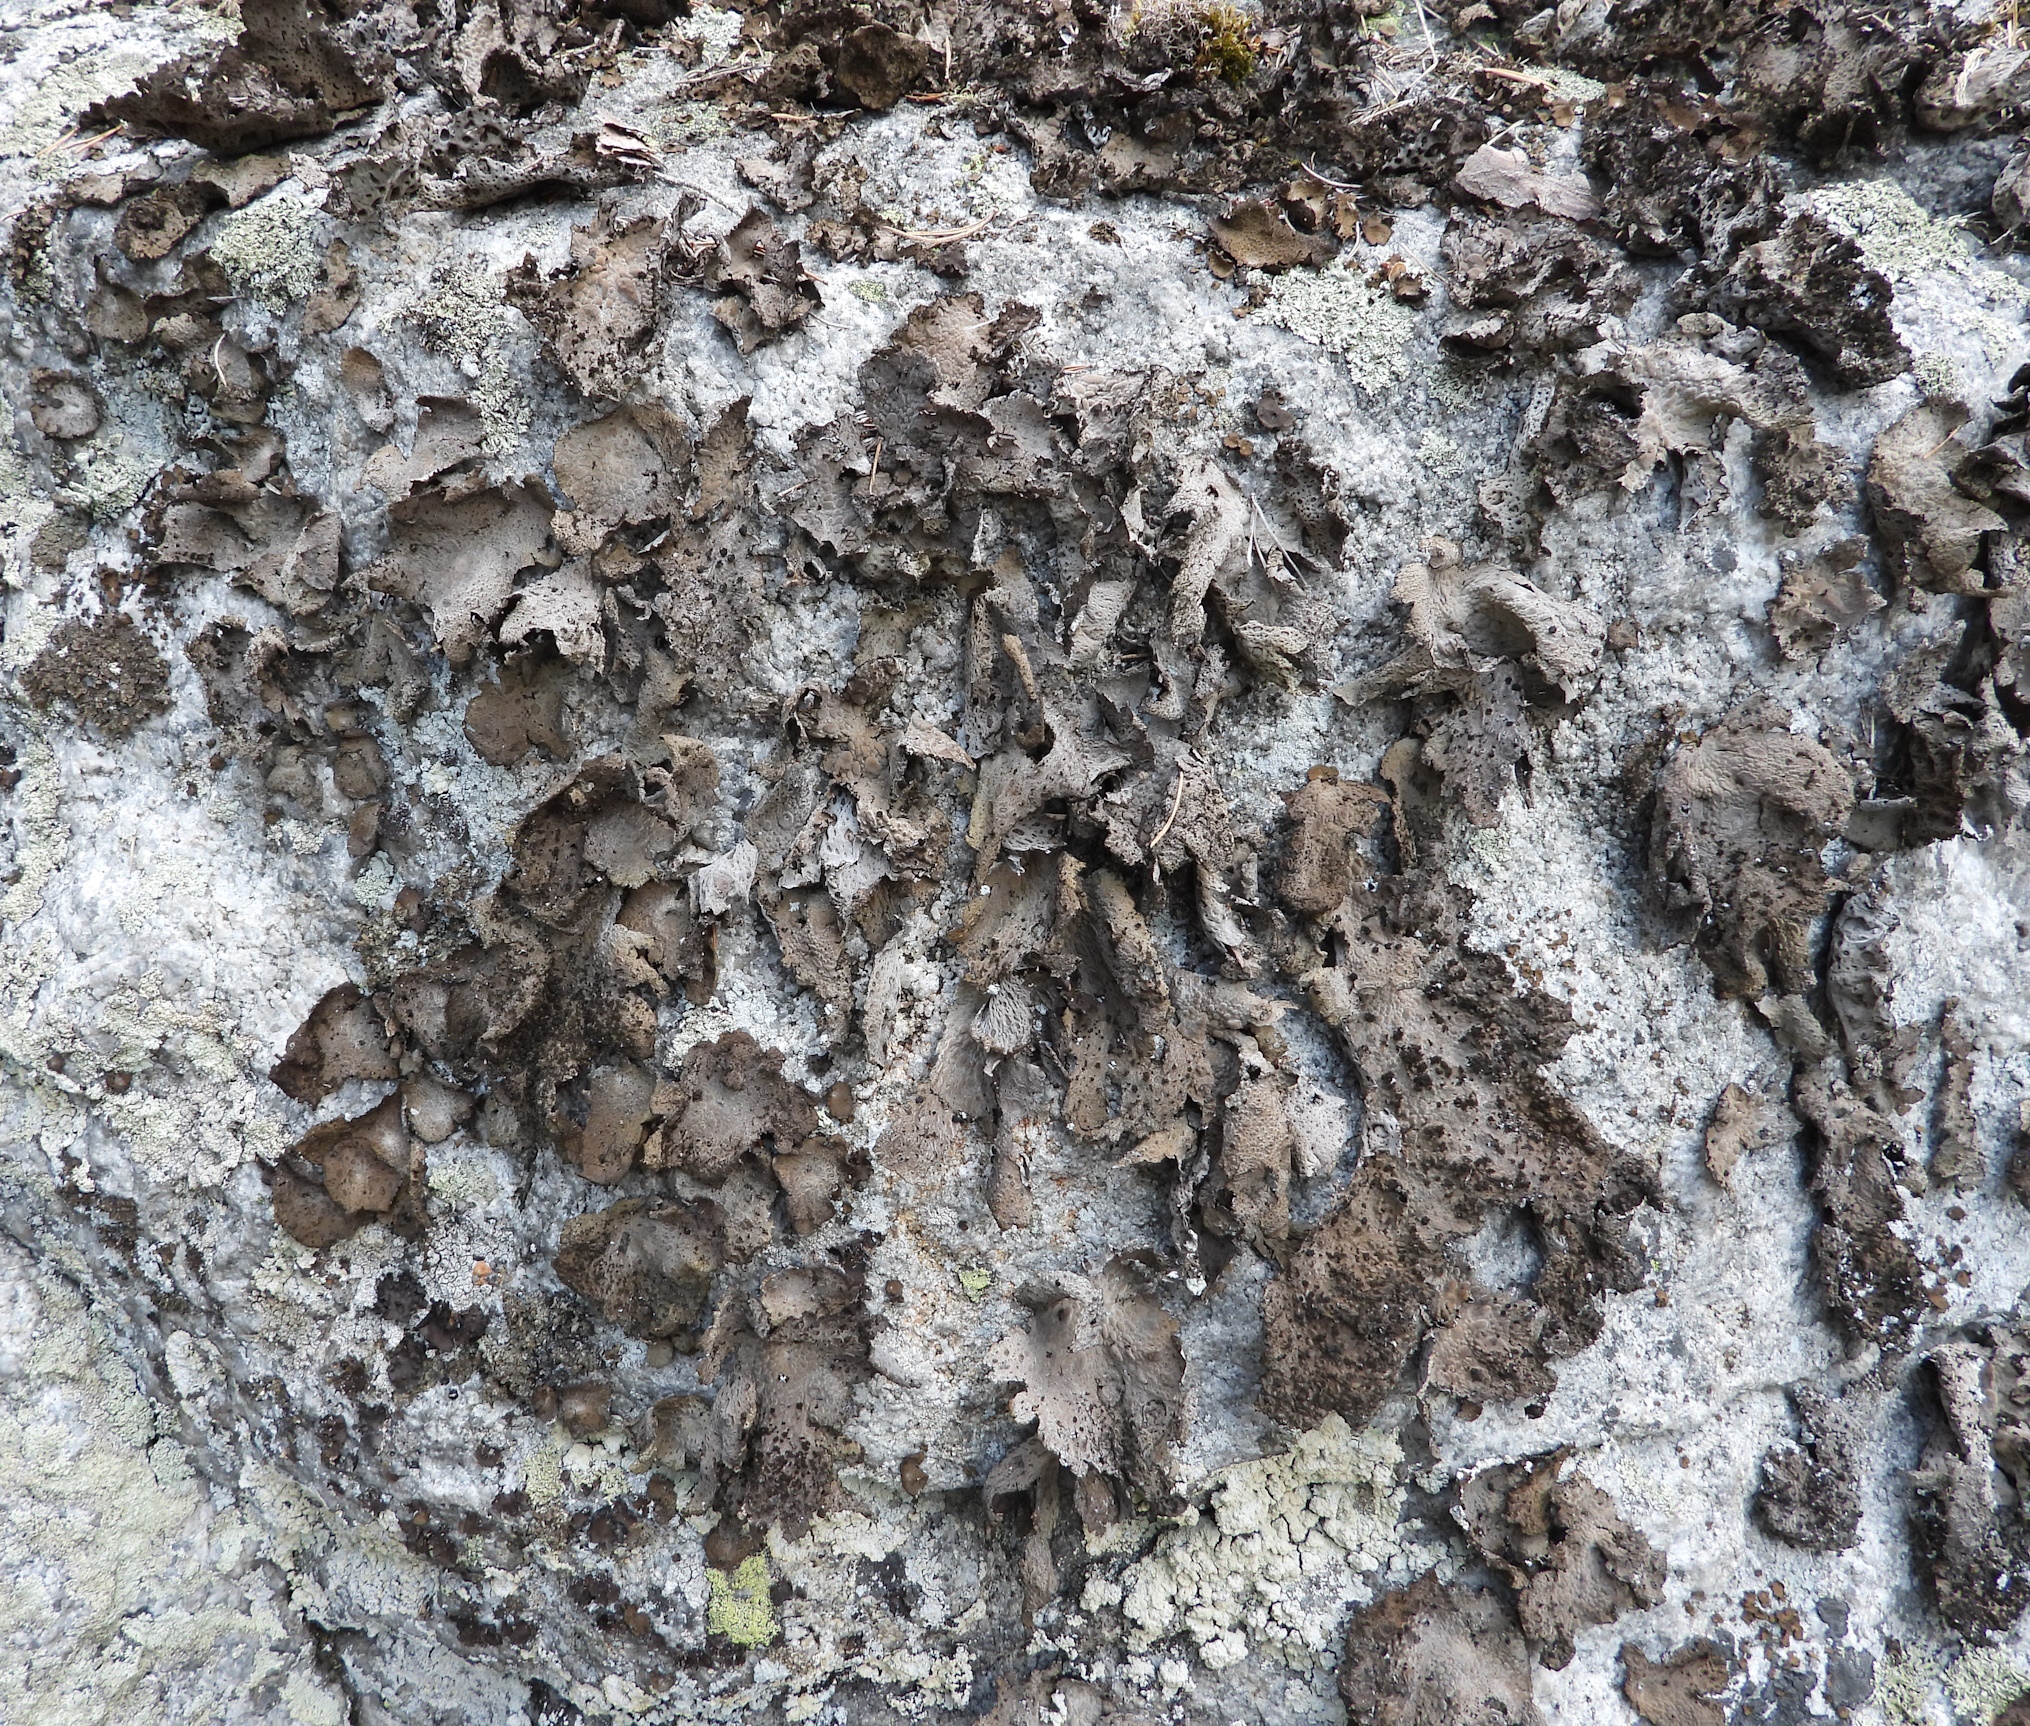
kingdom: Fungi
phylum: Ascomycota
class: Lecanoromycetes
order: Umbilicariales
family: Umbilicariaceae
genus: Lasallia
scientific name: Lasallia pustulata
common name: Blistered toadskin lichen
